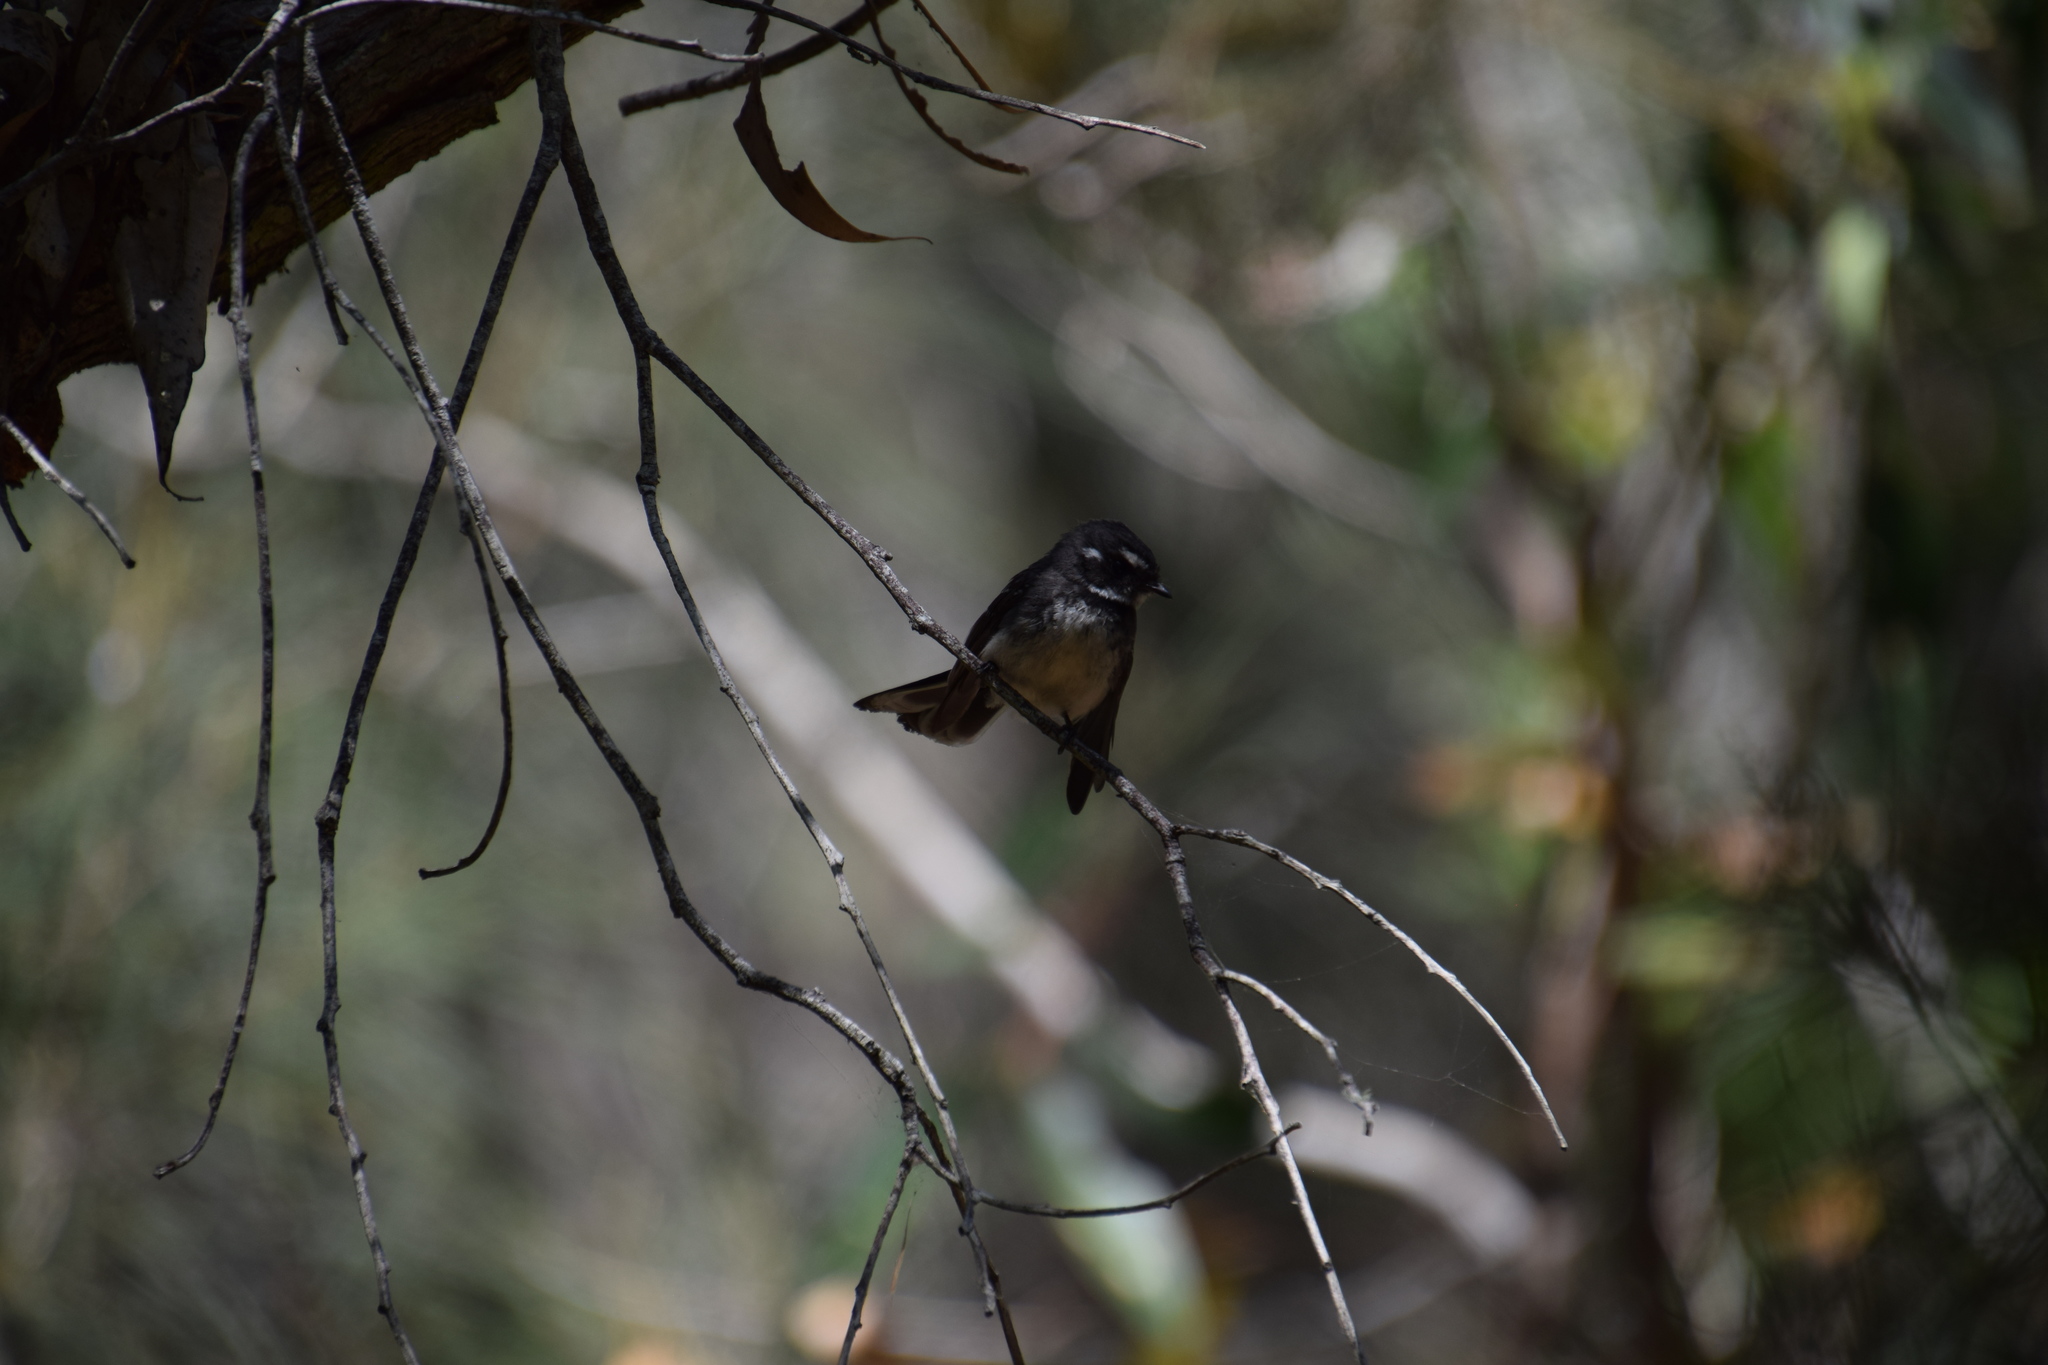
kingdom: Animalia
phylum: Chordata
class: Aves
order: Passeriformes
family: Rhipiduridae
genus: Rhipidura
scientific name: Rhipidura albiscapa
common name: Grey fantail
